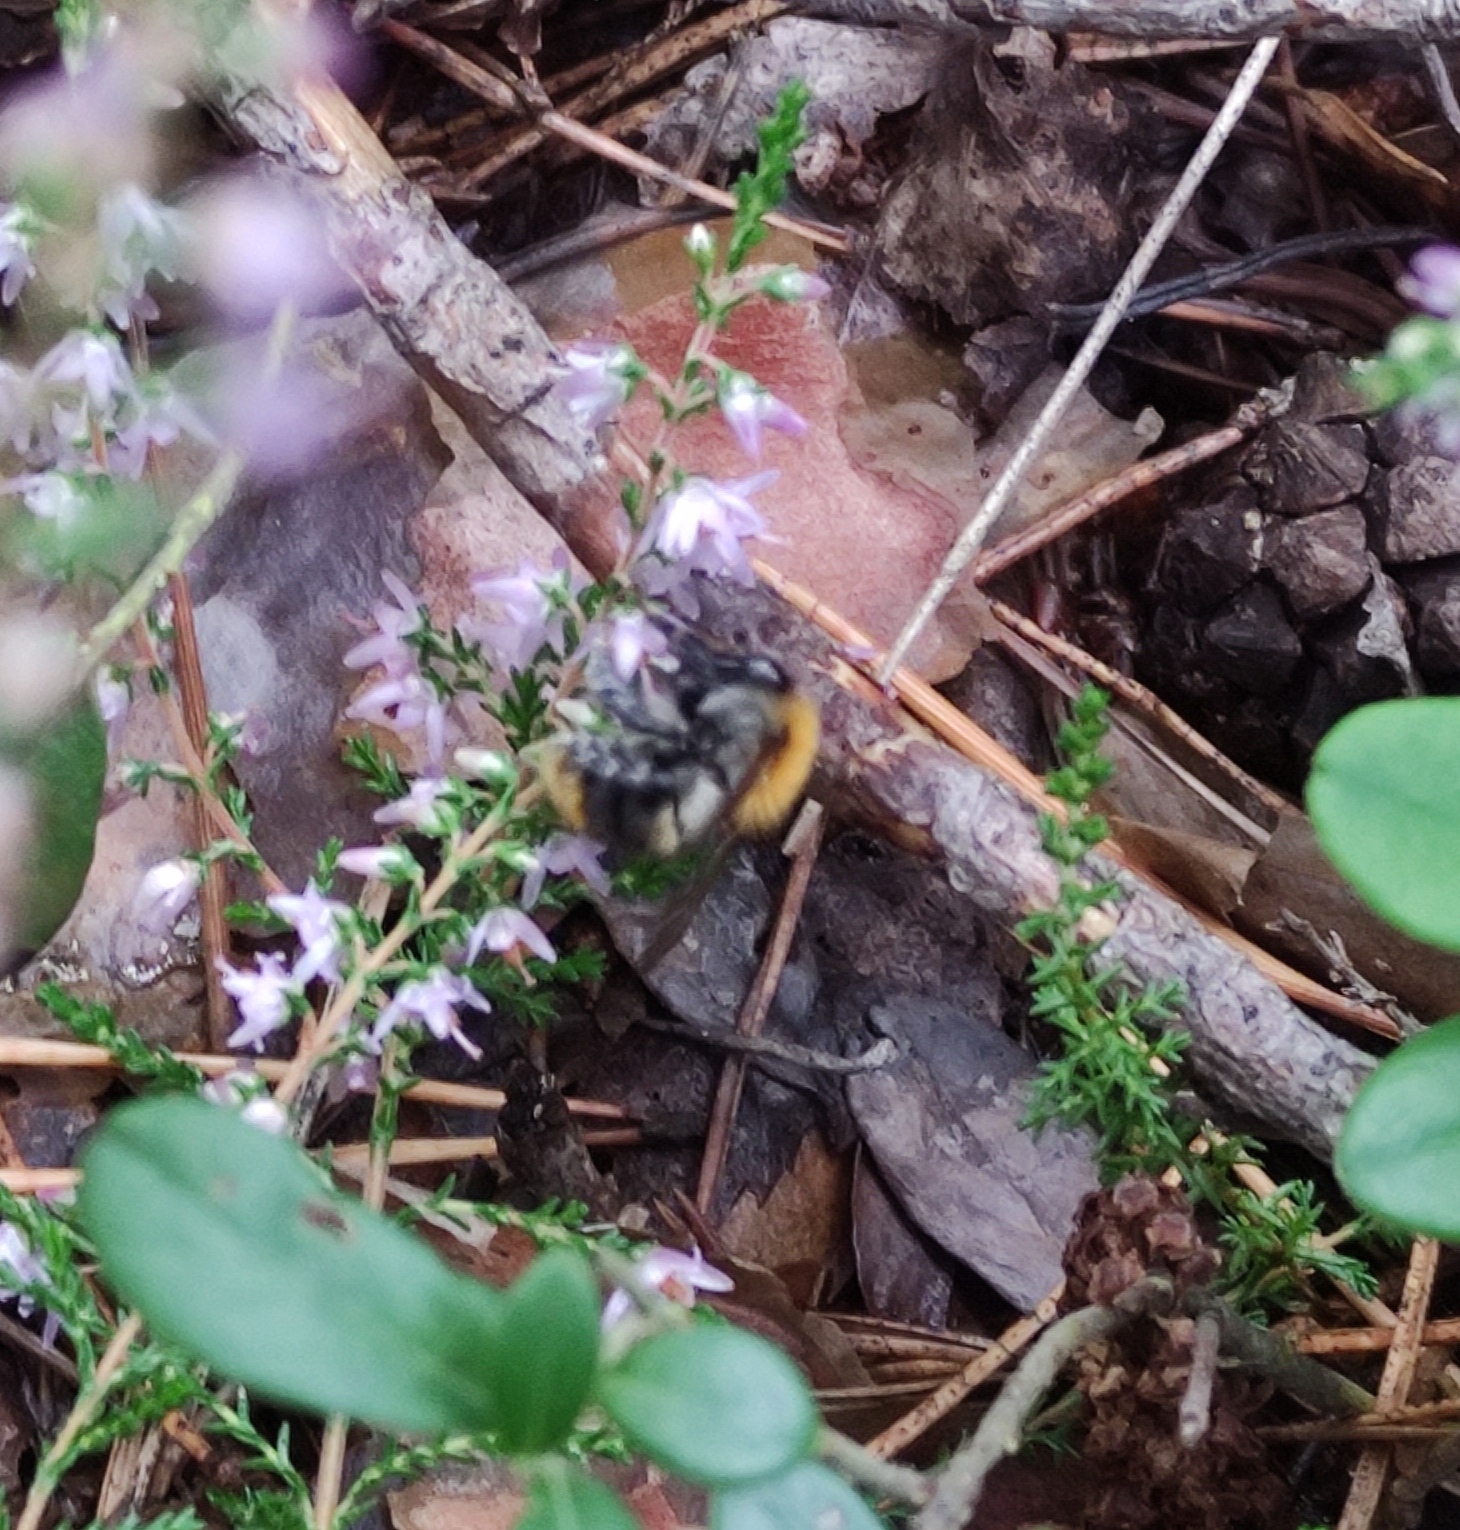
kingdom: Animalia
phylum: Arthropoda
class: Insecta
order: Hymenoptera
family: Apidae
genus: Bombus
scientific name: Bombus pascuorum
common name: Common carder bee
